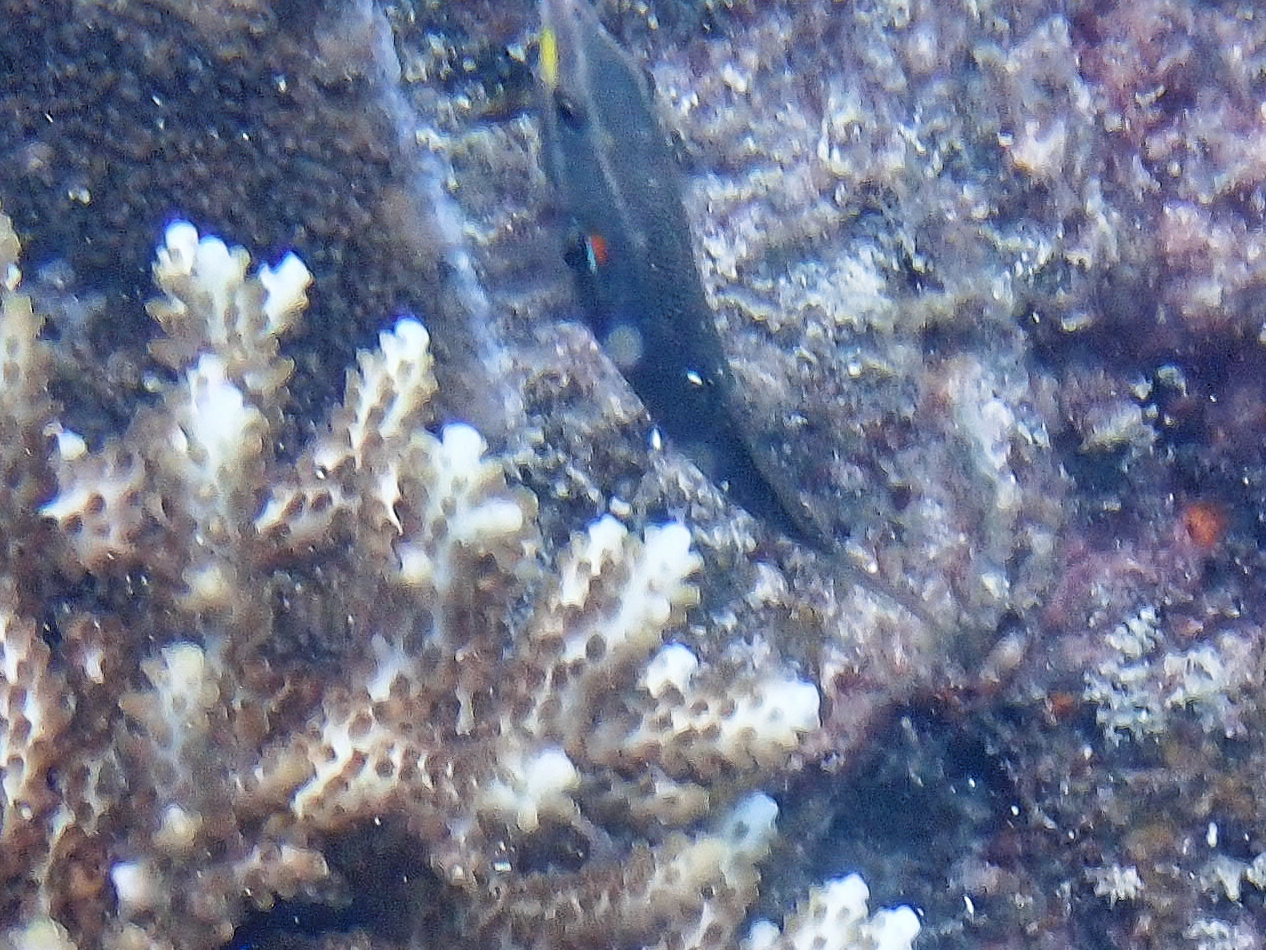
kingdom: Animalia
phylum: Chordata
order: Perciformes
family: Labridae
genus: Stethojulis
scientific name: Stethojulis bandanensis
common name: Red shoulder wrasse
